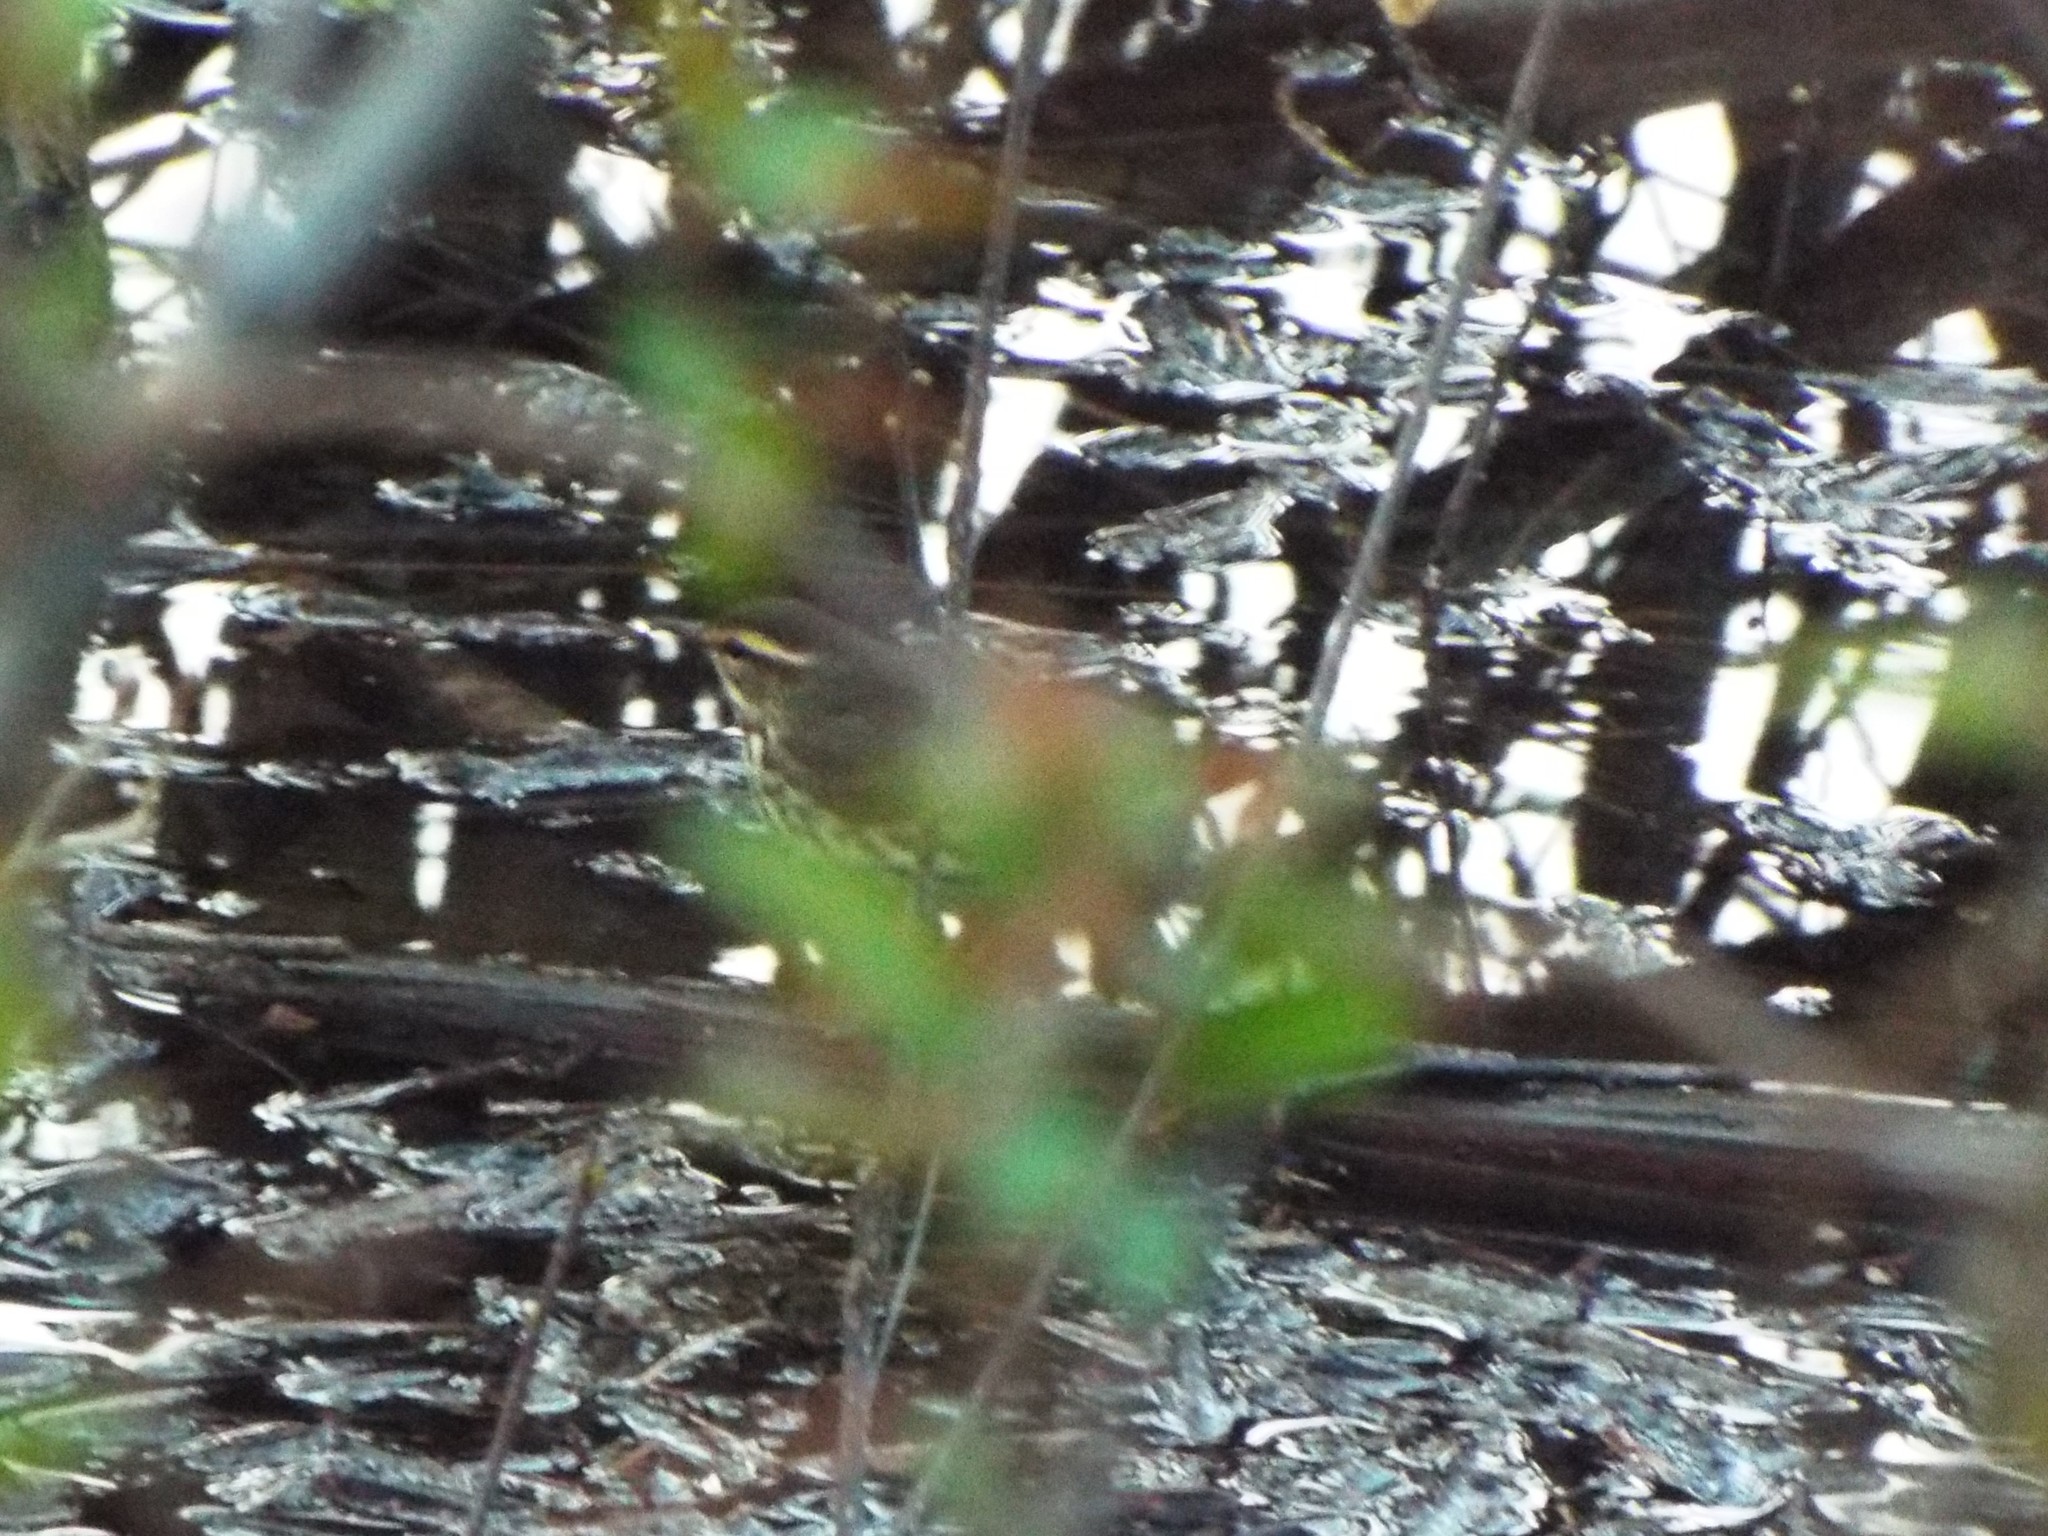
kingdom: Animalia
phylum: Chordata
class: Aves
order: Passeriformes
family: Parulidae
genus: Parkesia
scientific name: Parkesia noveboracensis
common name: Northern waterthrush
